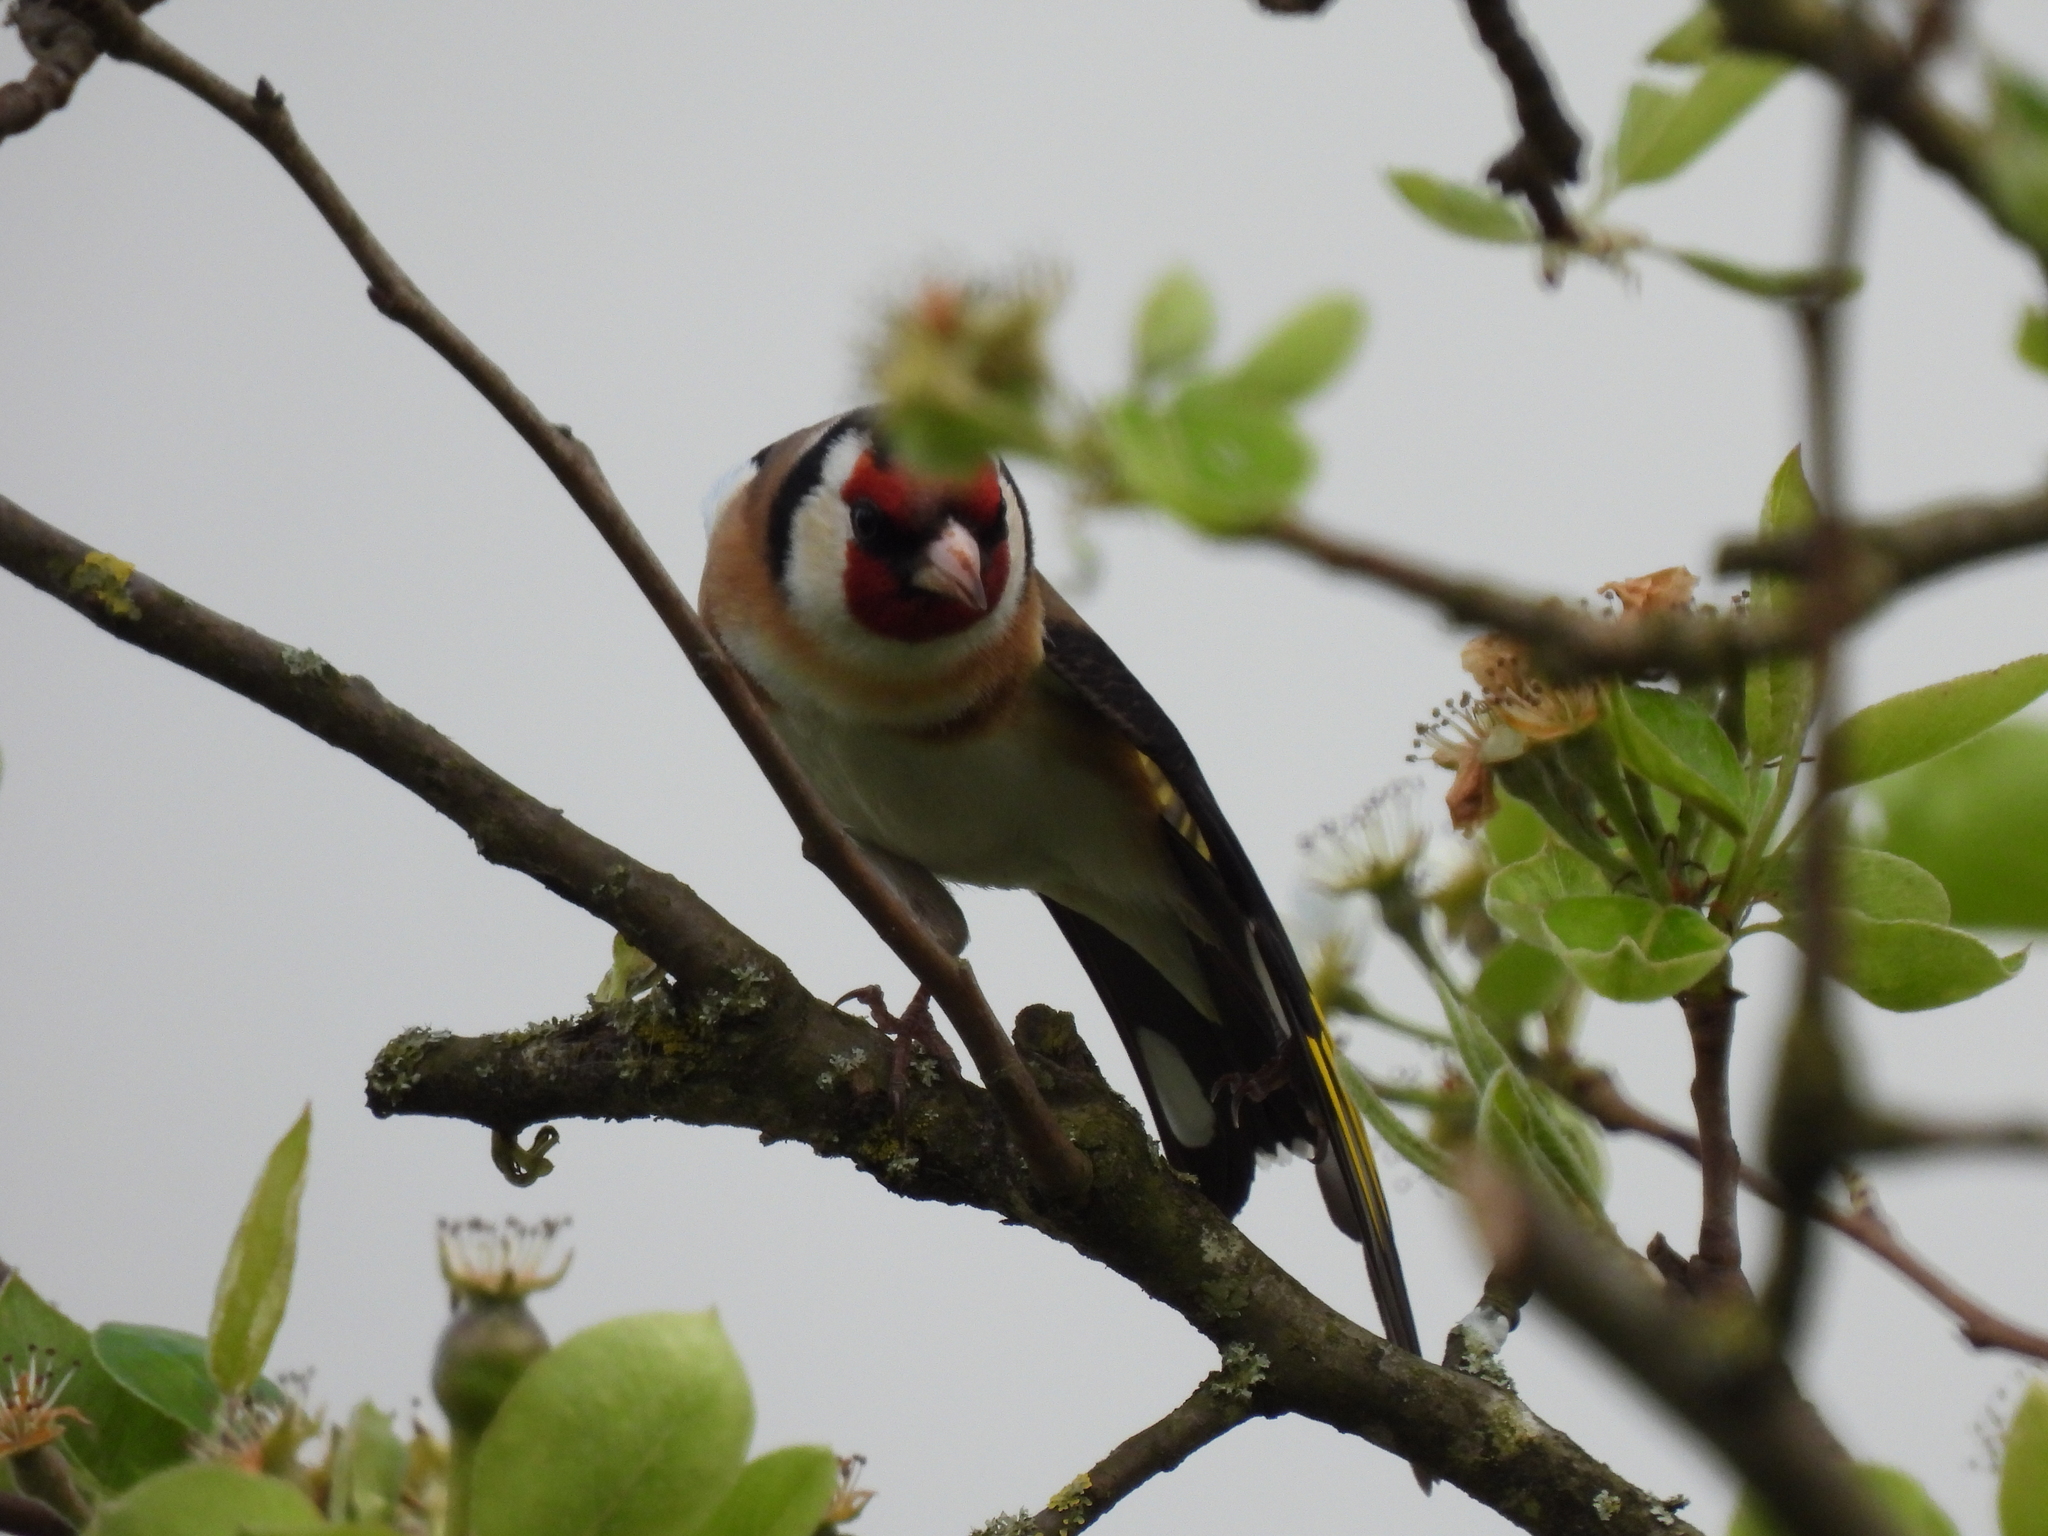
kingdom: Animalia
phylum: Chordata
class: Aves
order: Passeriformes
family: Fringillidae
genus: Carduelis
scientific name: Carduelis carduelis
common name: European goldfinch
